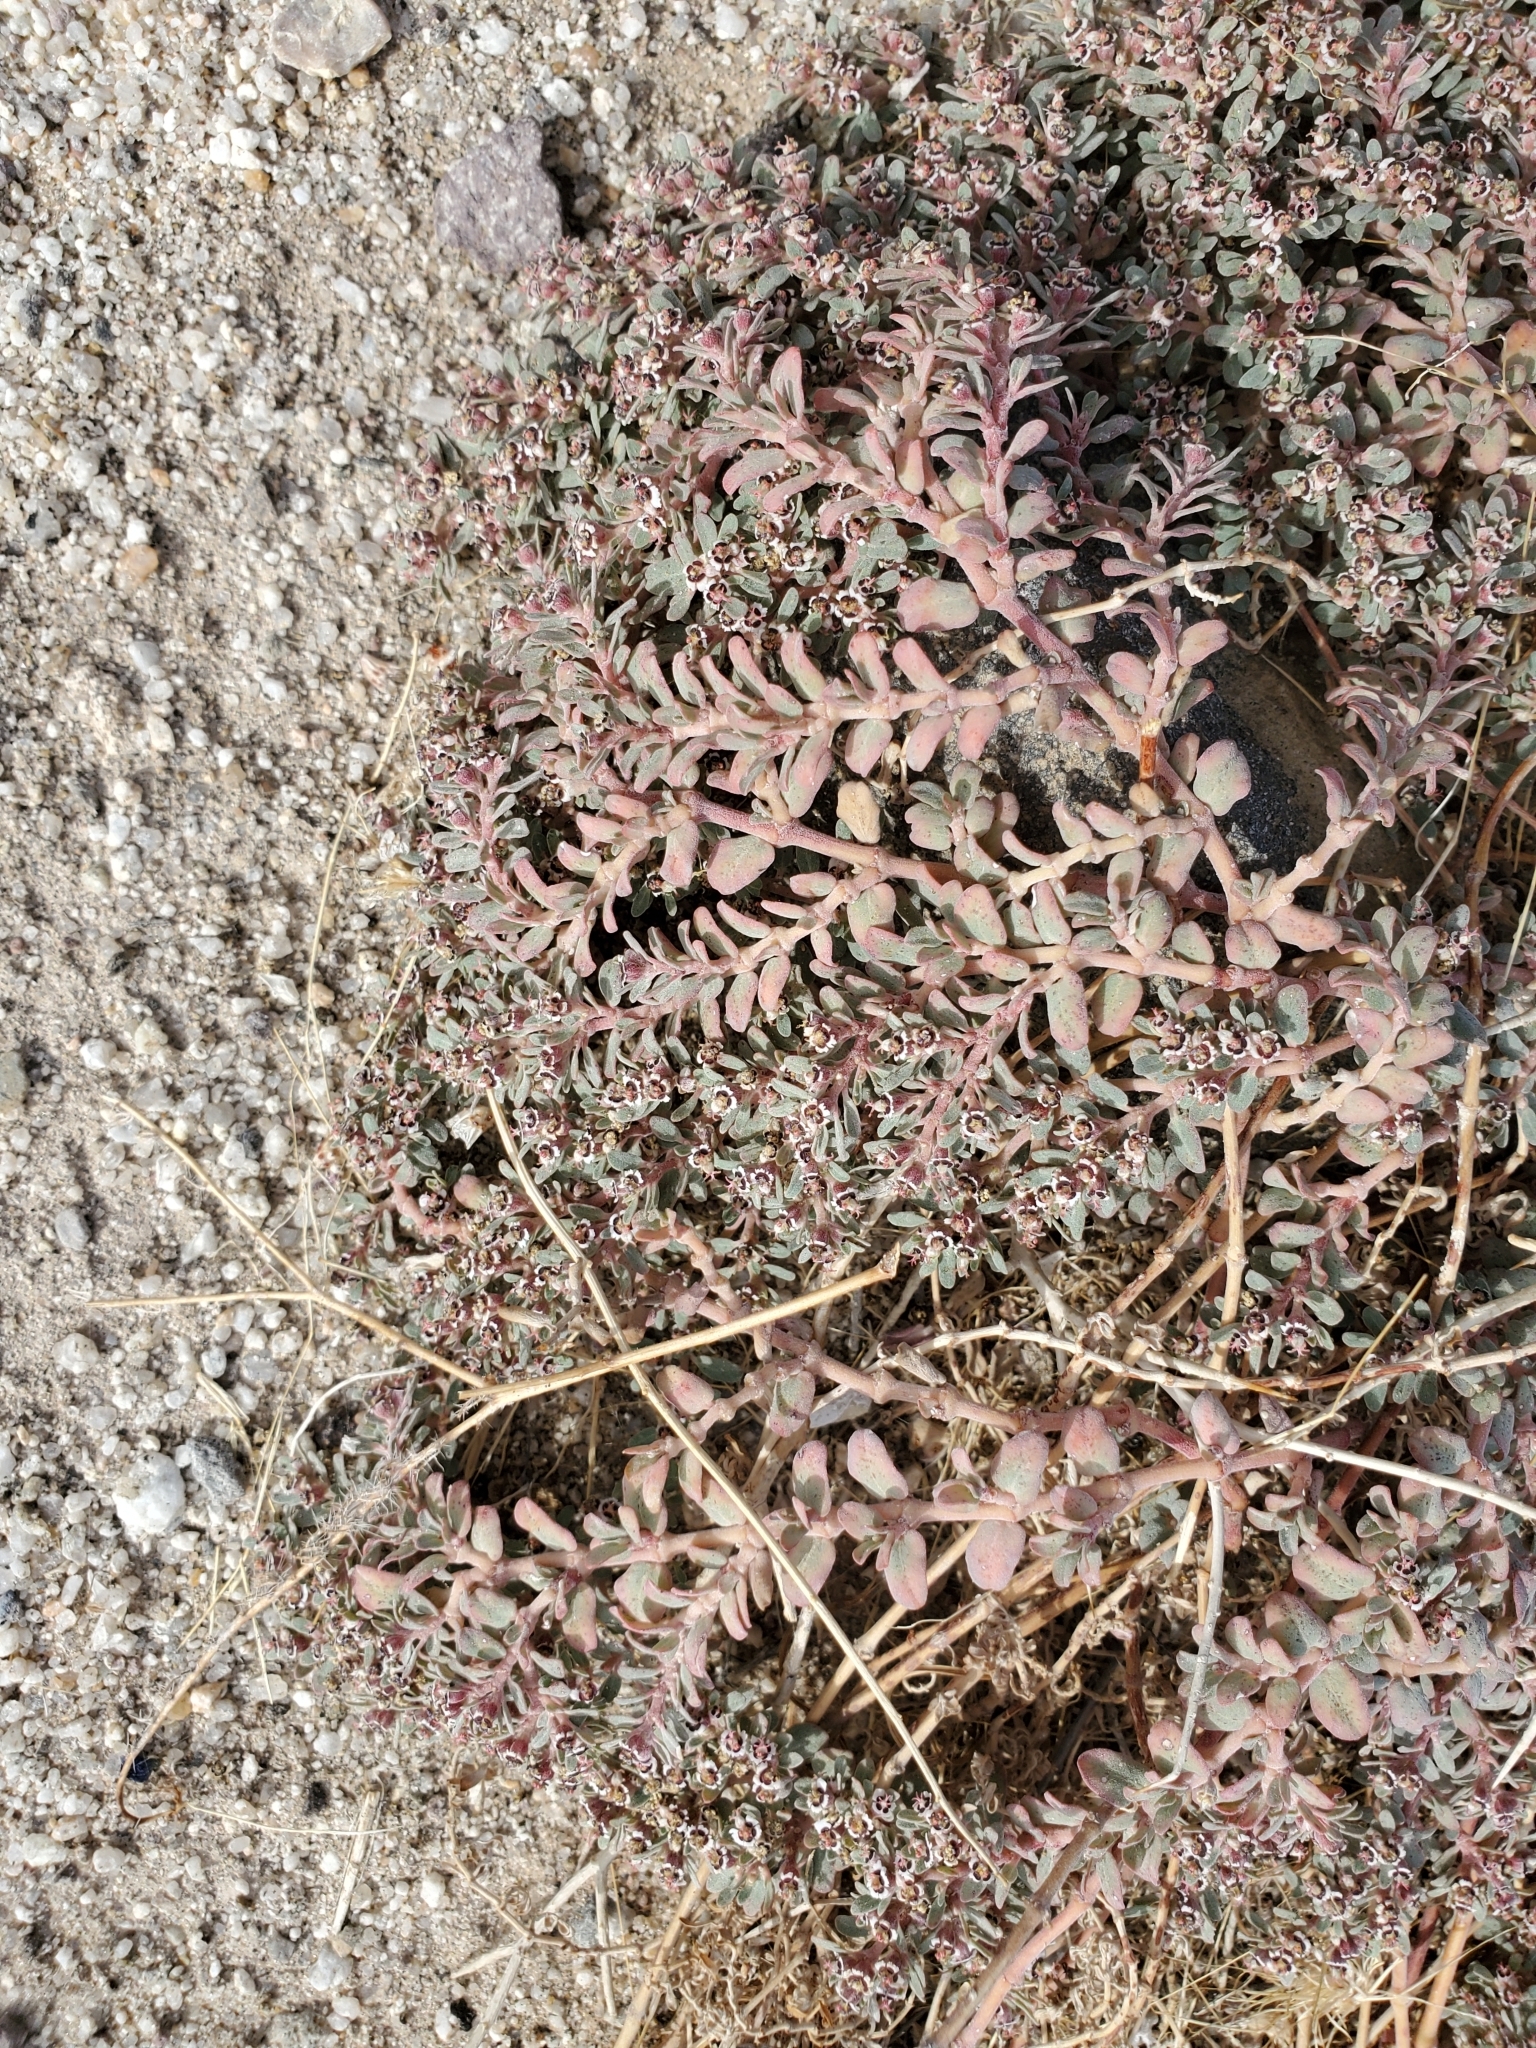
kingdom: Plantae
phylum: Tracheophyta
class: Magnoliopsida
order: Malpighiales
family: Euphorbiaceae
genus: Euphorbia
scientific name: Euphorbia pediculifera
